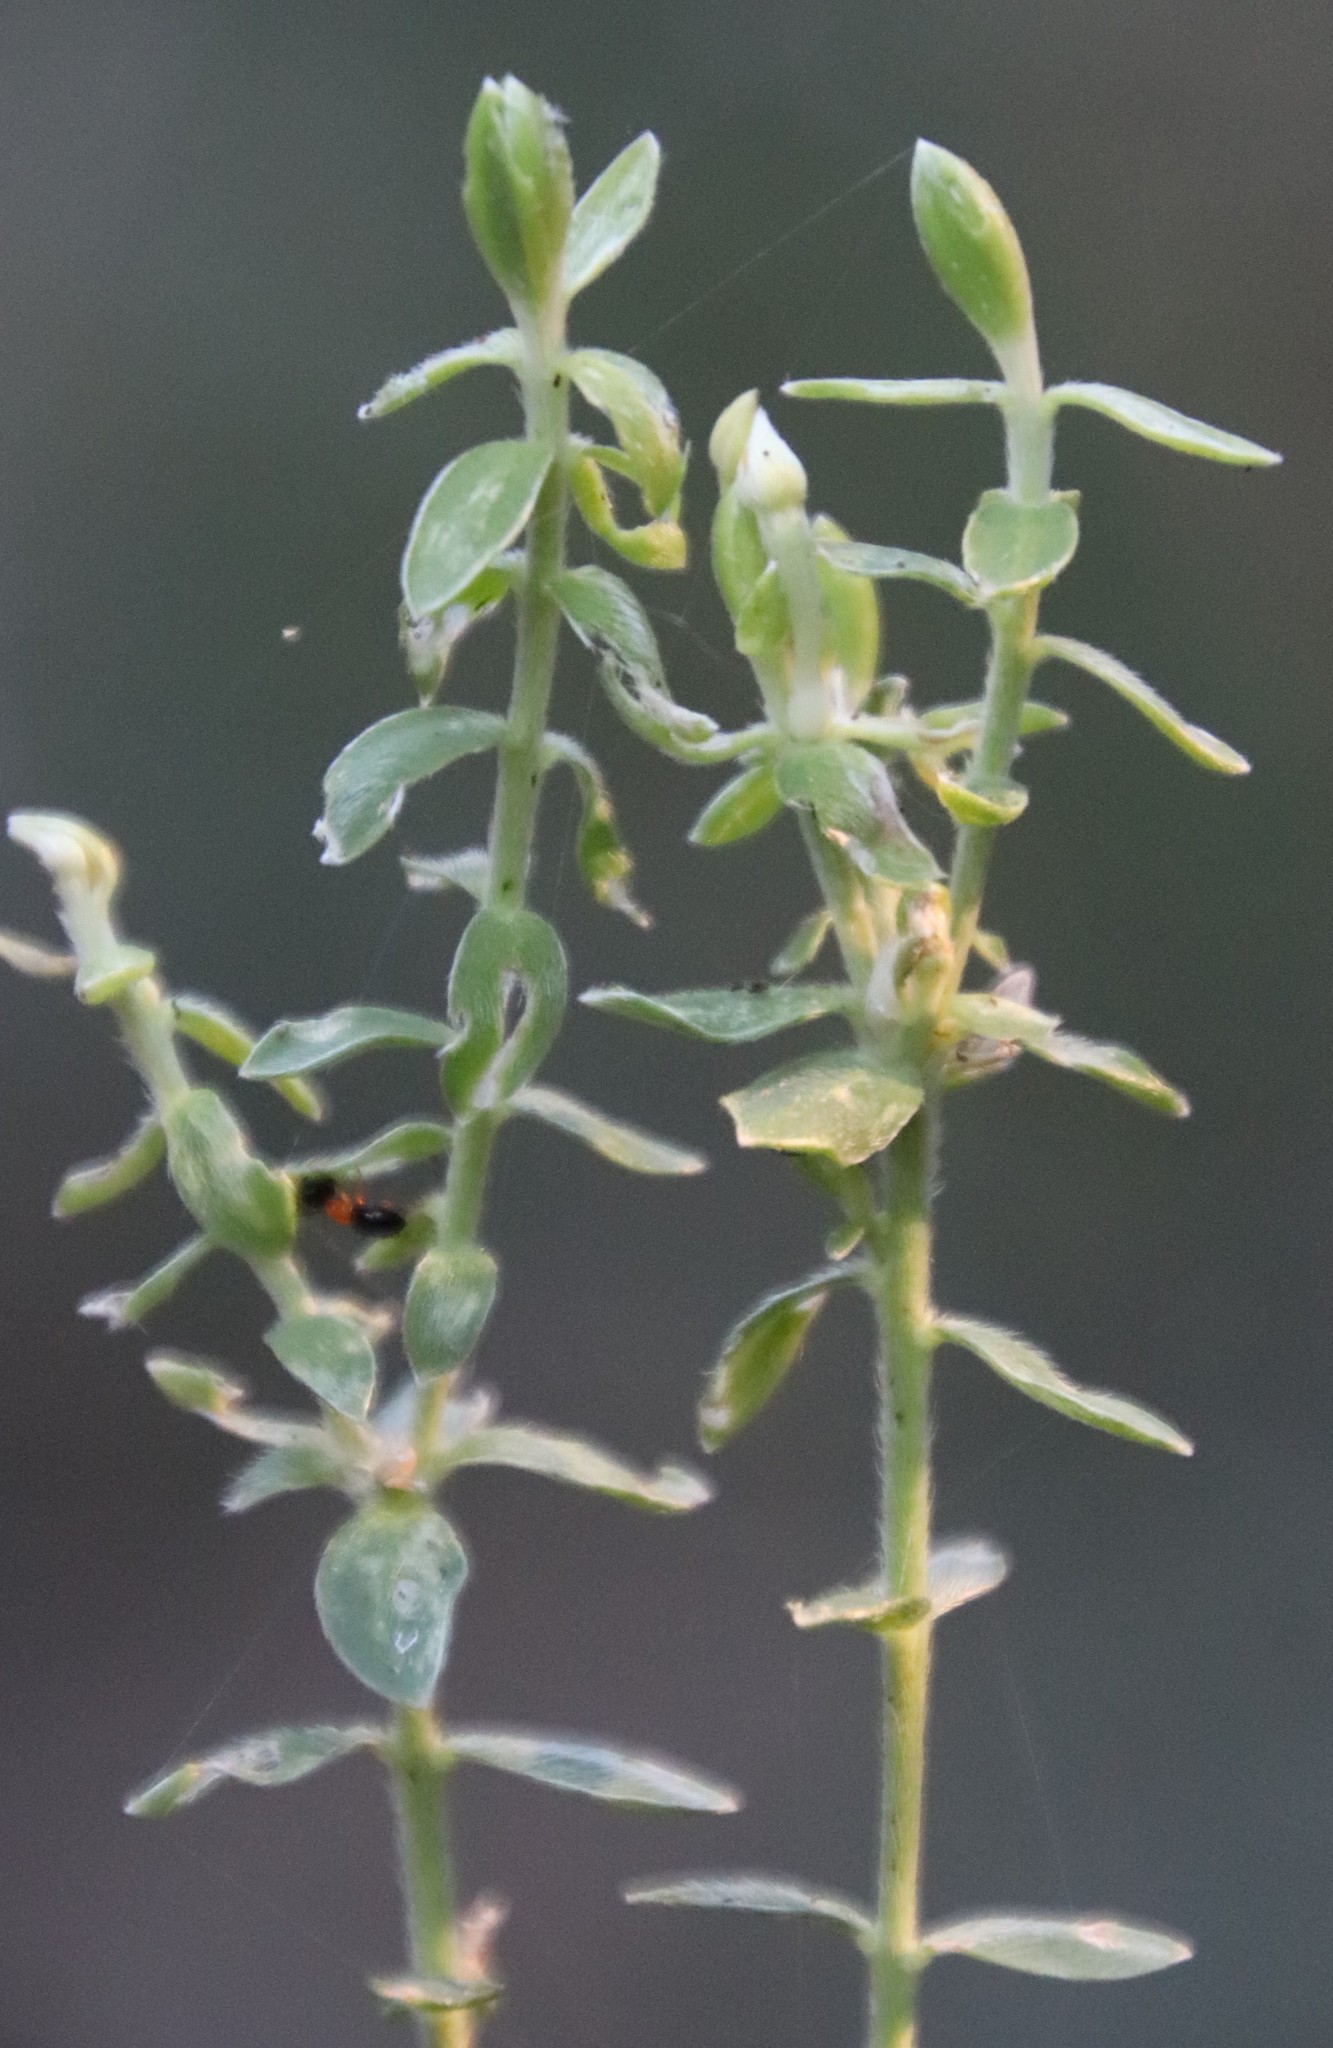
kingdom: Plantae
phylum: Tracheophyta
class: Magnoliopsida
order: Malvales
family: Thymelaeaceae
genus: Gnidia
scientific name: Gnidia sericea
